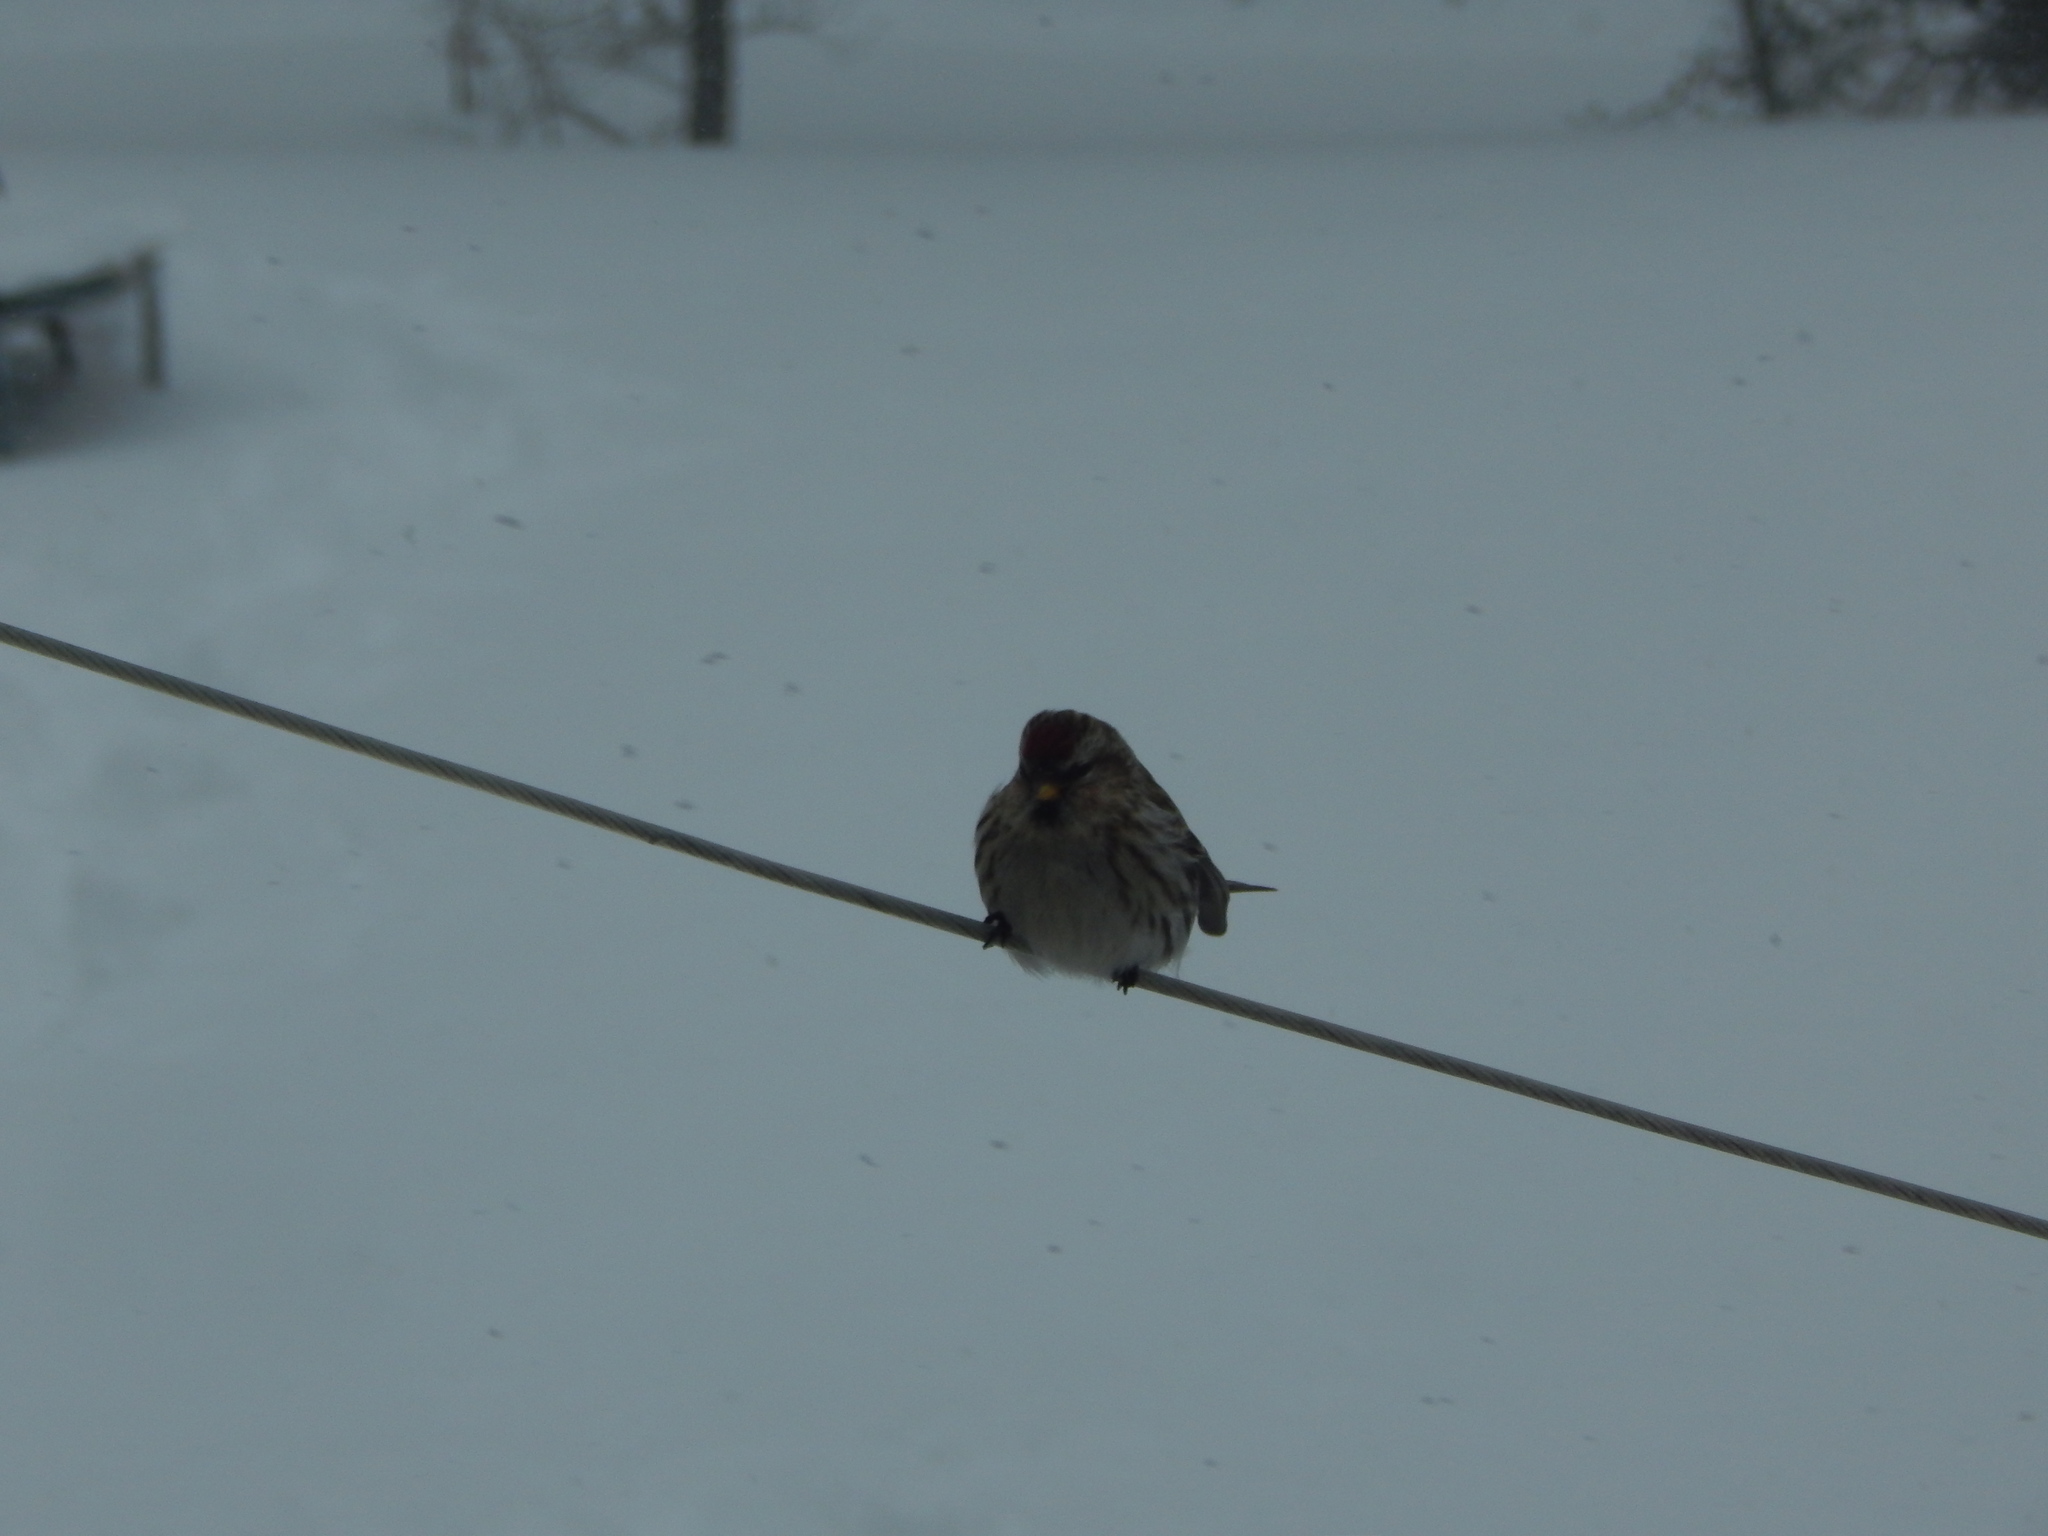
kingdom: Animalia
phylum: Chordata
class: Aves
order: Passeriformes
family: Fringillidae
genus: Acanthis
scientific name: Acanthis flammea
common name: Common redpoll
